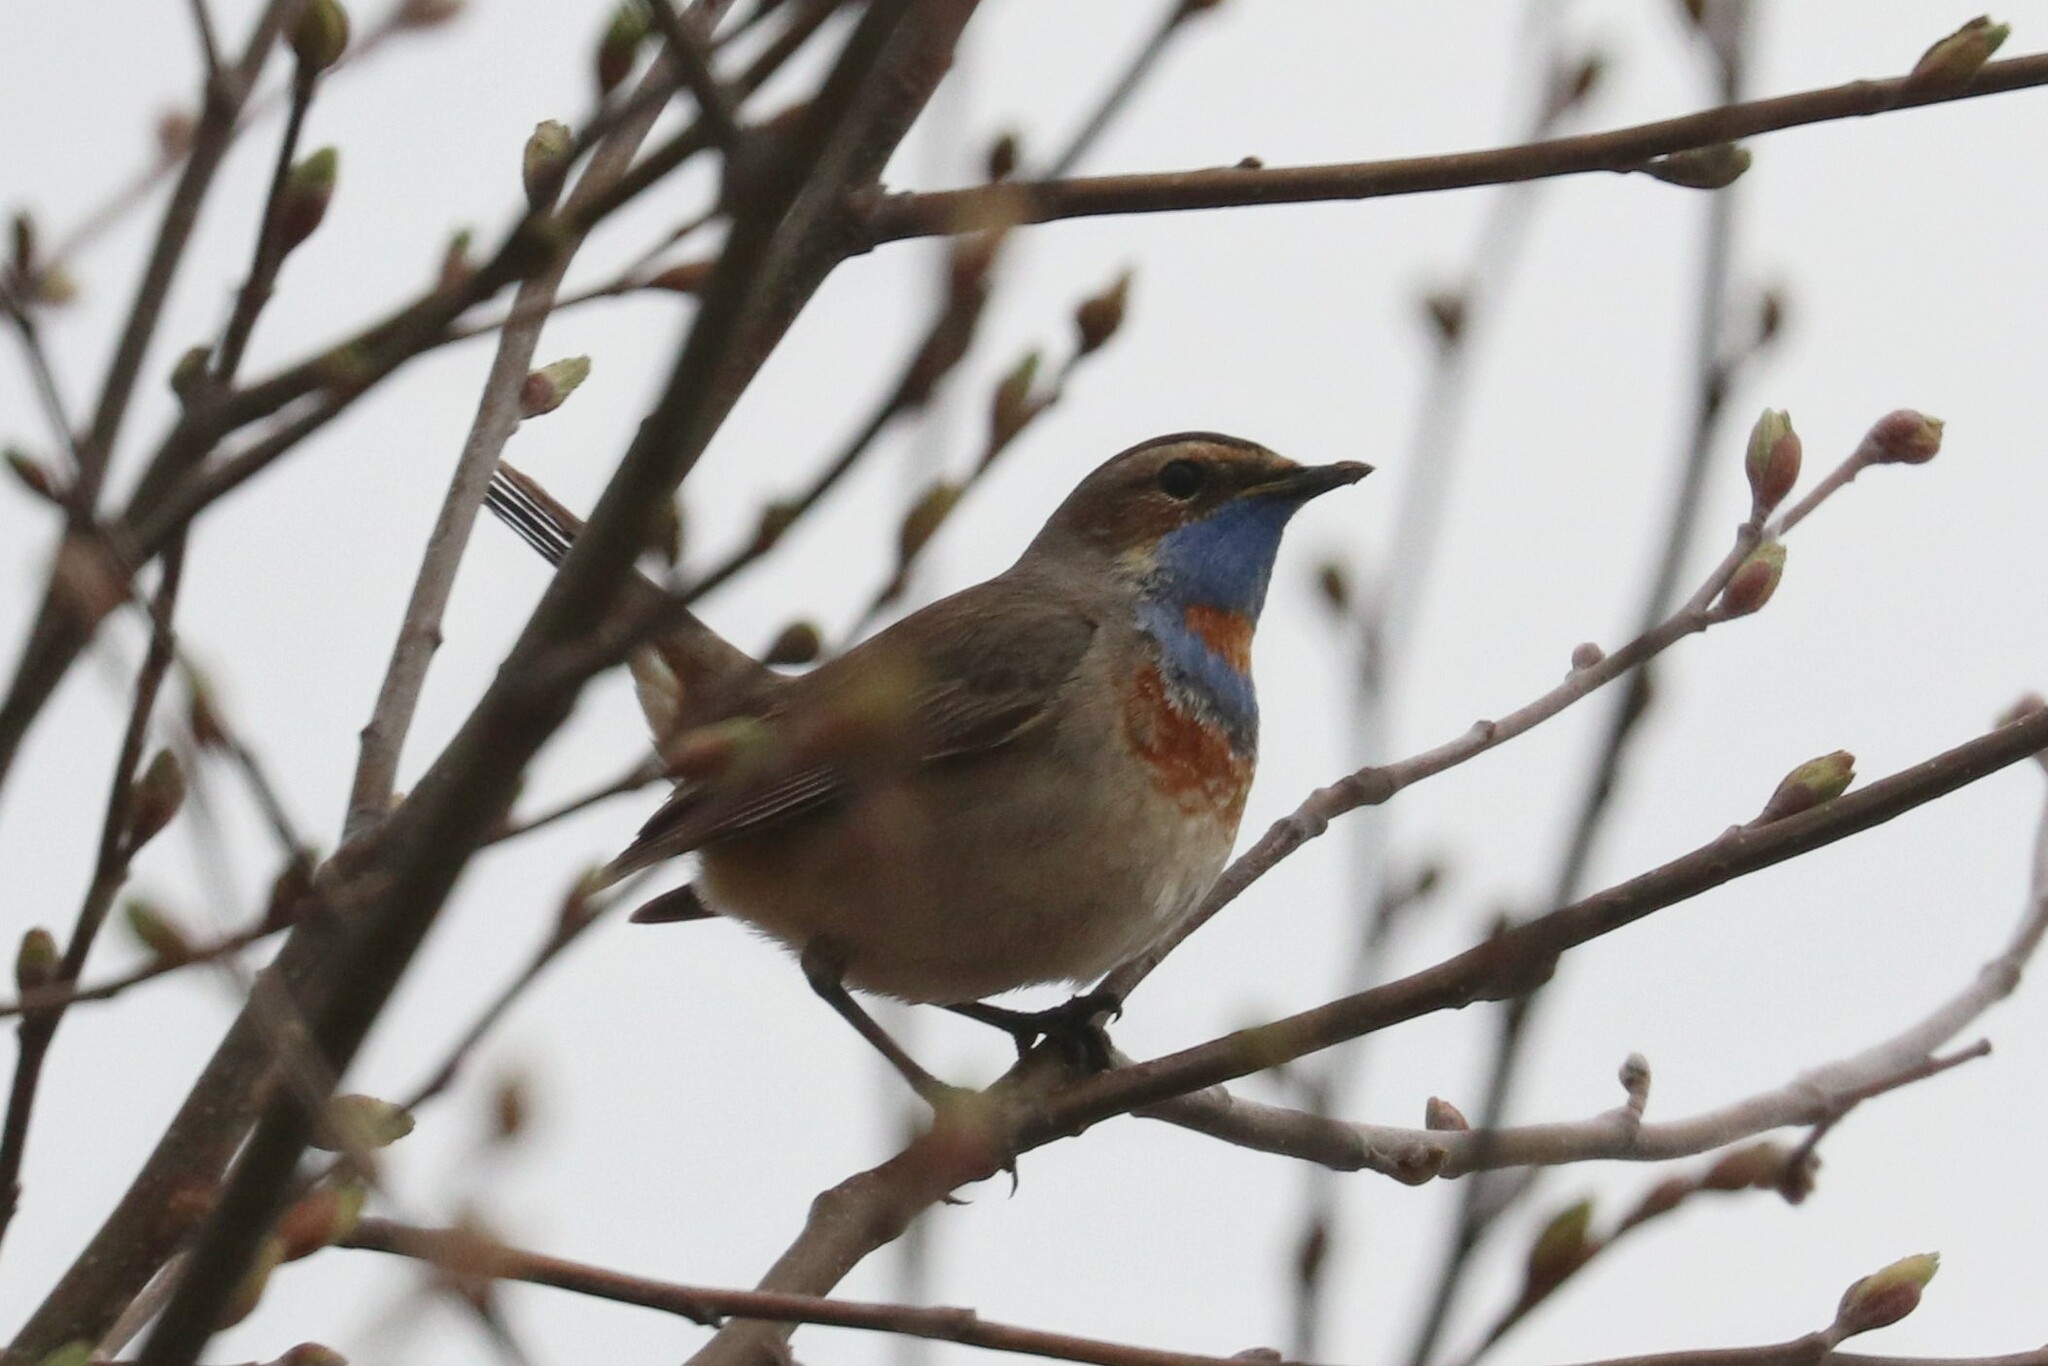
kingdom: Animalia
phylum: Chordata
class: Aves
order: Passeriformes
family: Muscicapidae
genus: Luscinia
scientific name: Luscinia svecica
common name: Bluethroat
